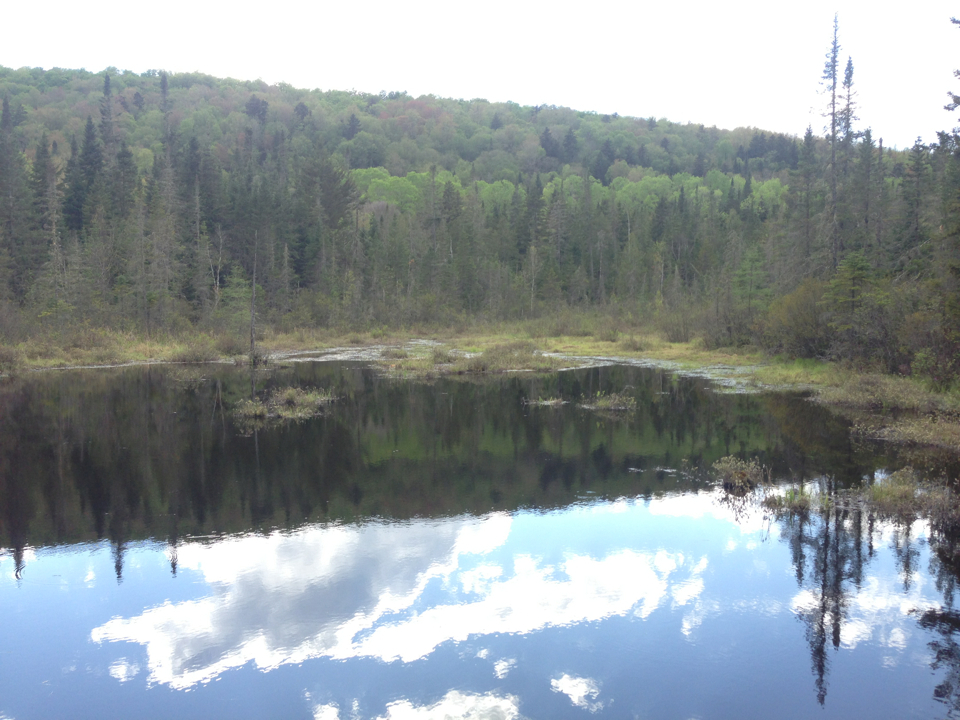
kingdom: Plantae
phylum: Tracheophyta
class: Pinopsida
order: Pinales
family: Pinaceae
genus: Abies
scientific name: Abies balsamea
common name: Balsam fir
